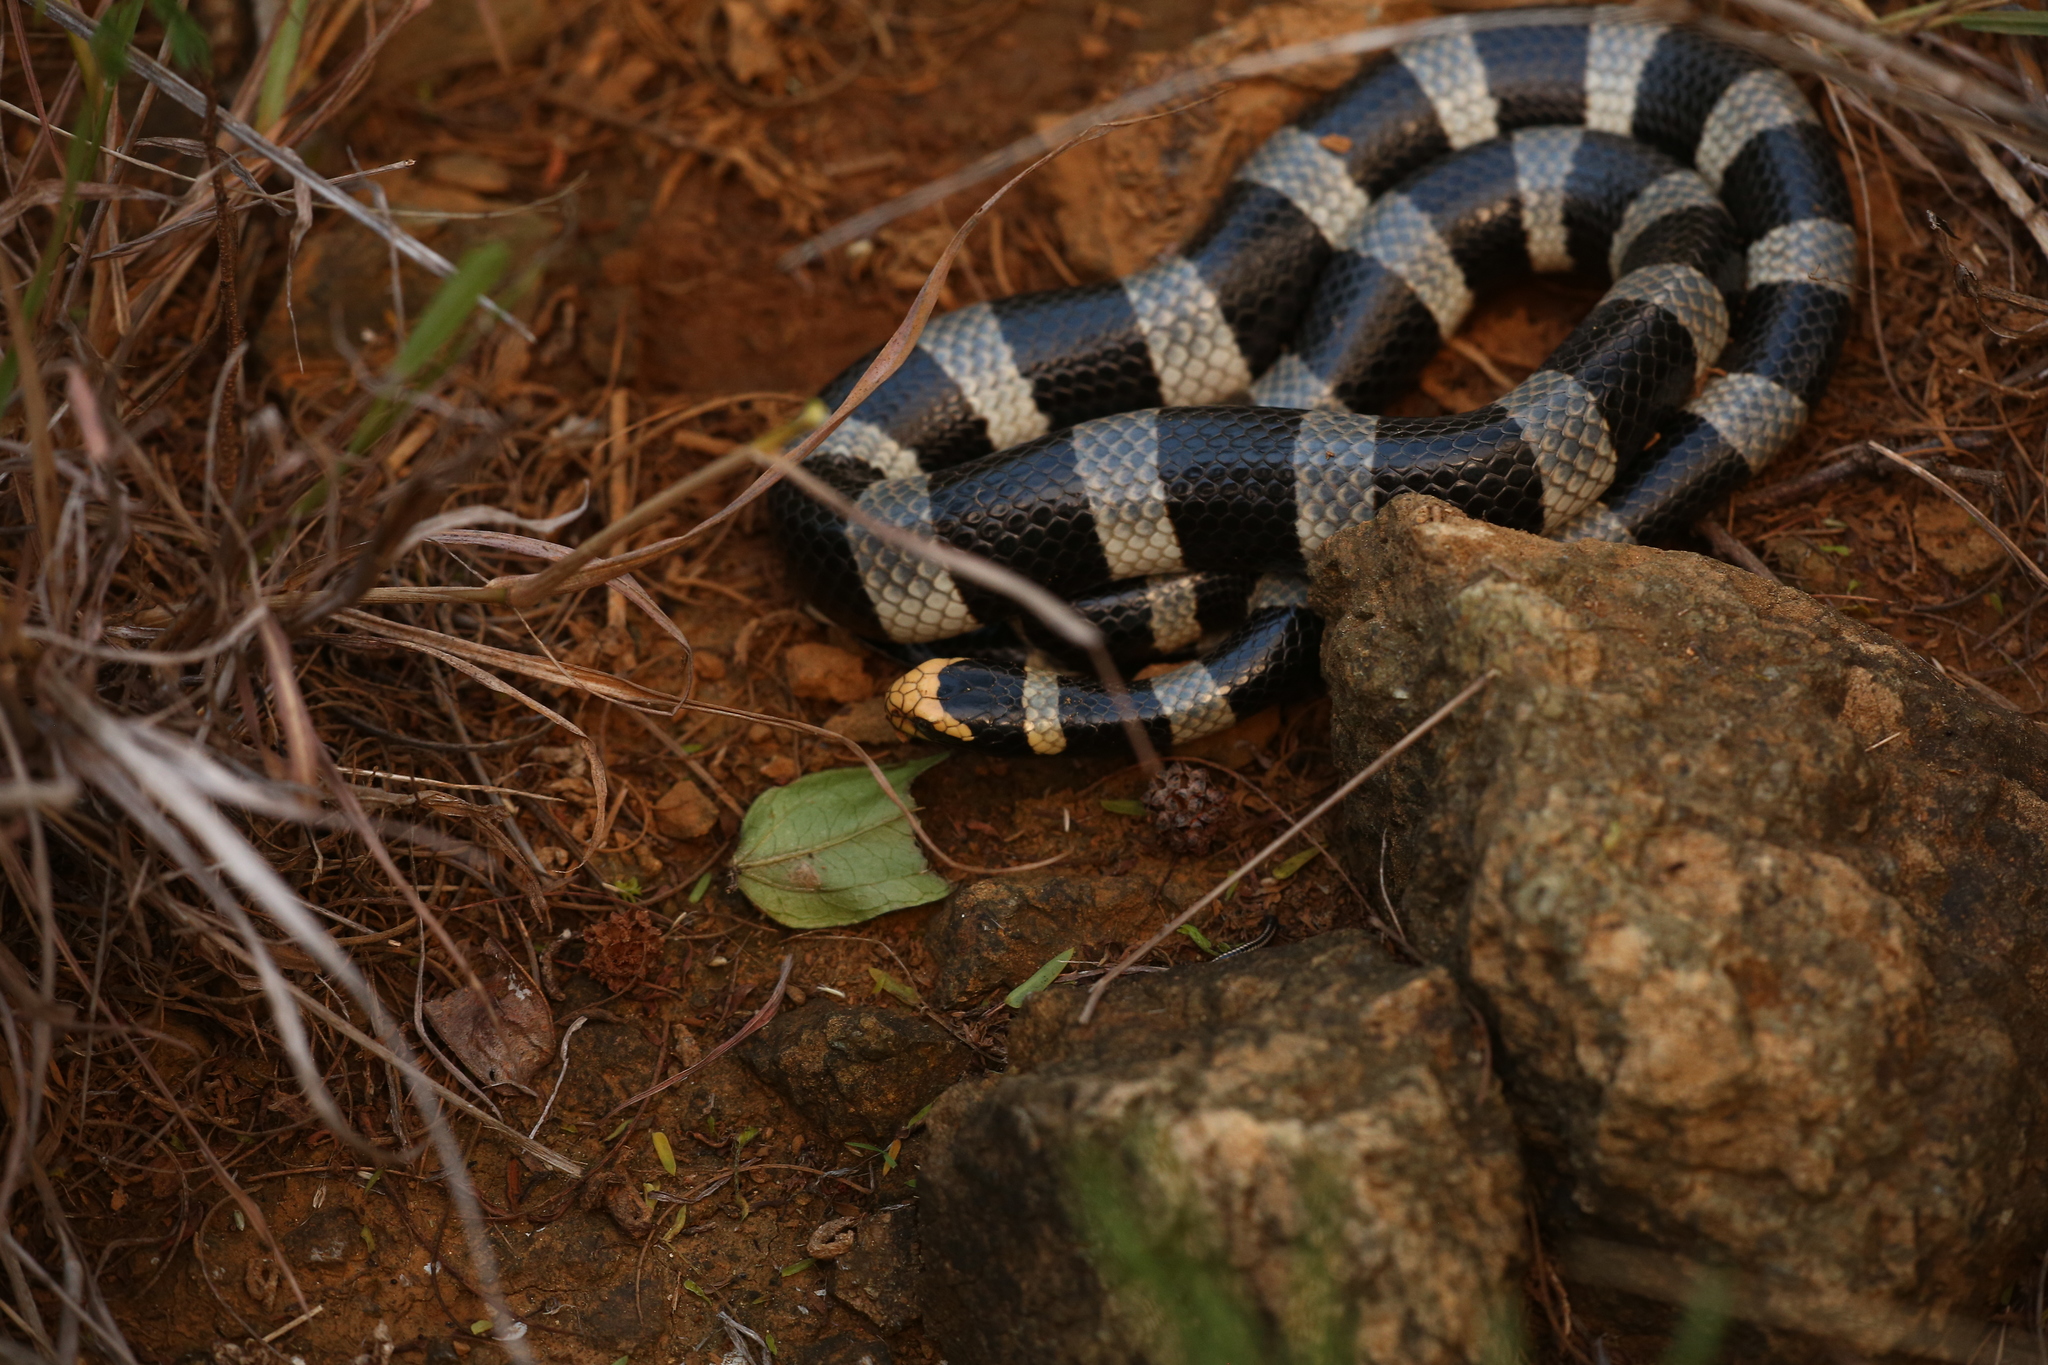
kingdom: Animalia
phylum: Chordata
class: Squamata
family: Elapidae
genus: Laticauda
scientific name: Laticauda saintgironsi
